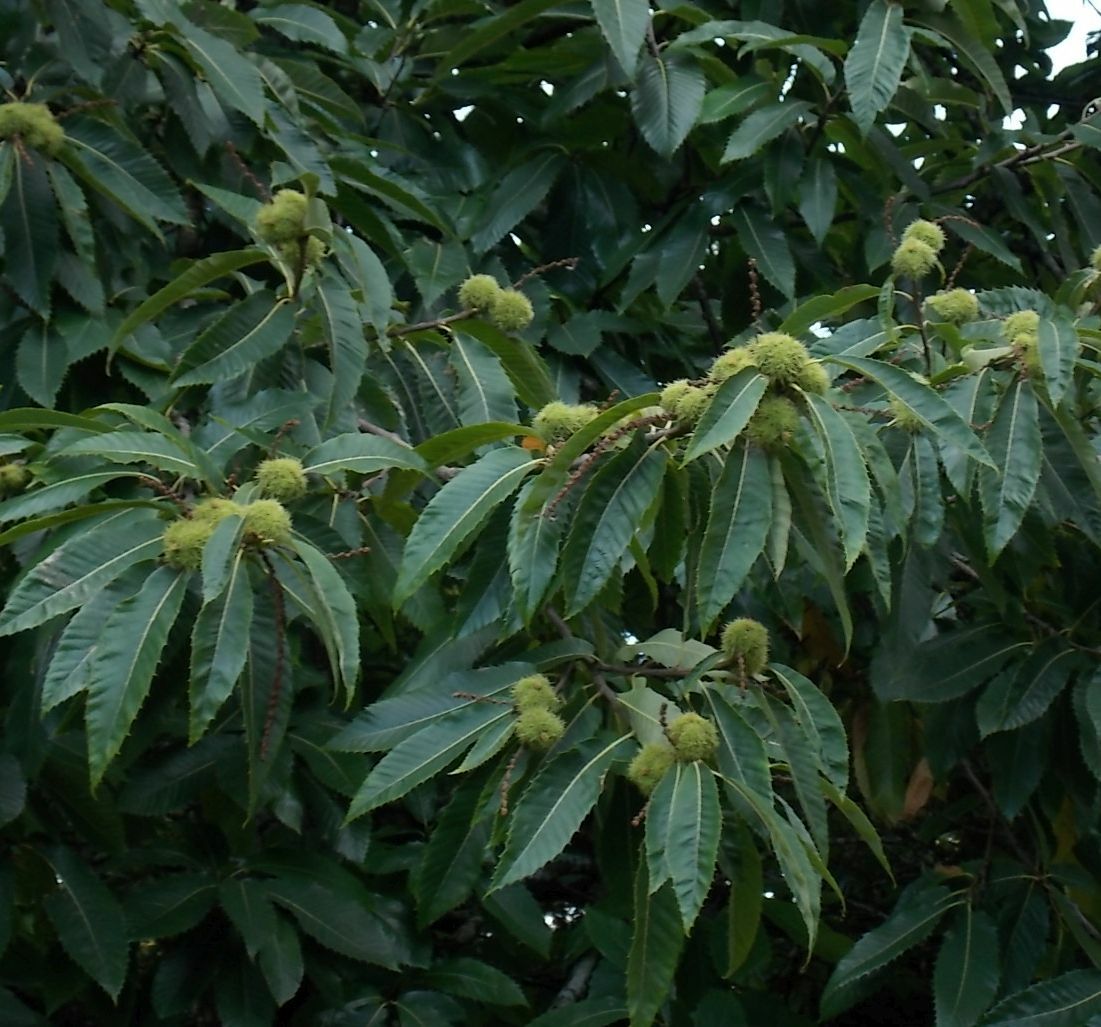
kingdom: Plantae
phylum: Tracheophyta
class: Magnoliopsida
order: Fagales
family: Fagaceae
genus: Castanea
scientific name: Castanea sativa
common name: Sweet chestnut
